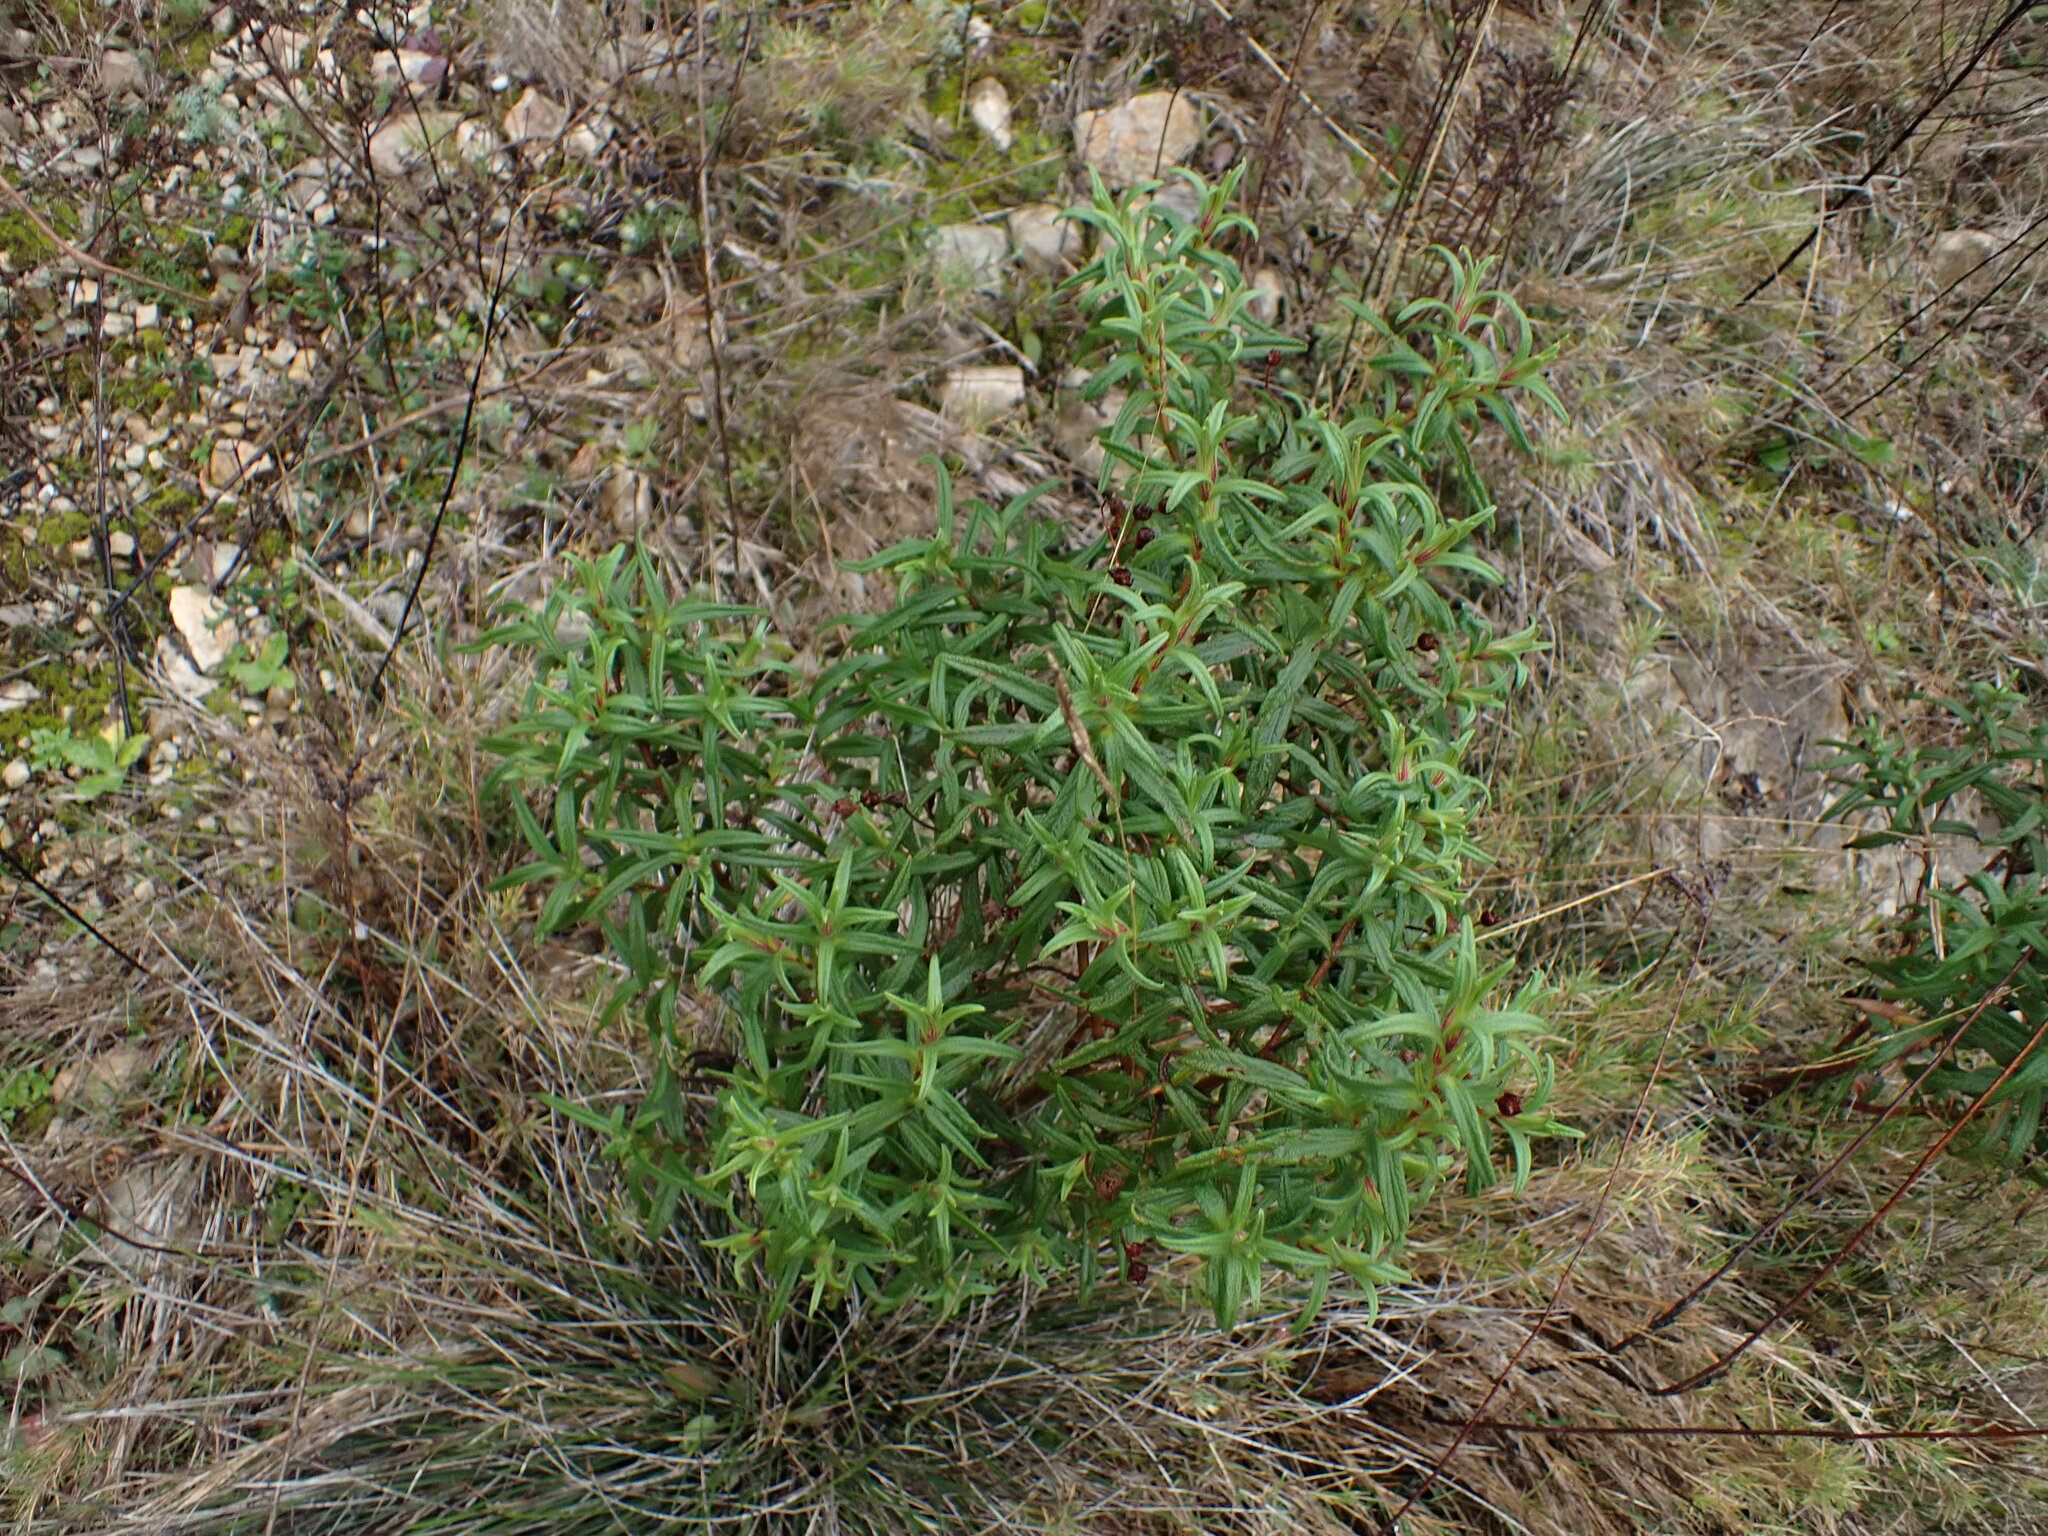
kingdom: Plantae
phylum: Tracheophyta
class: Magnoliopsida
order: Malvales
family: Cistaceae
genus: Cistus
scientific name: Cistus monspeliensis
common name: Montpelier cistus
